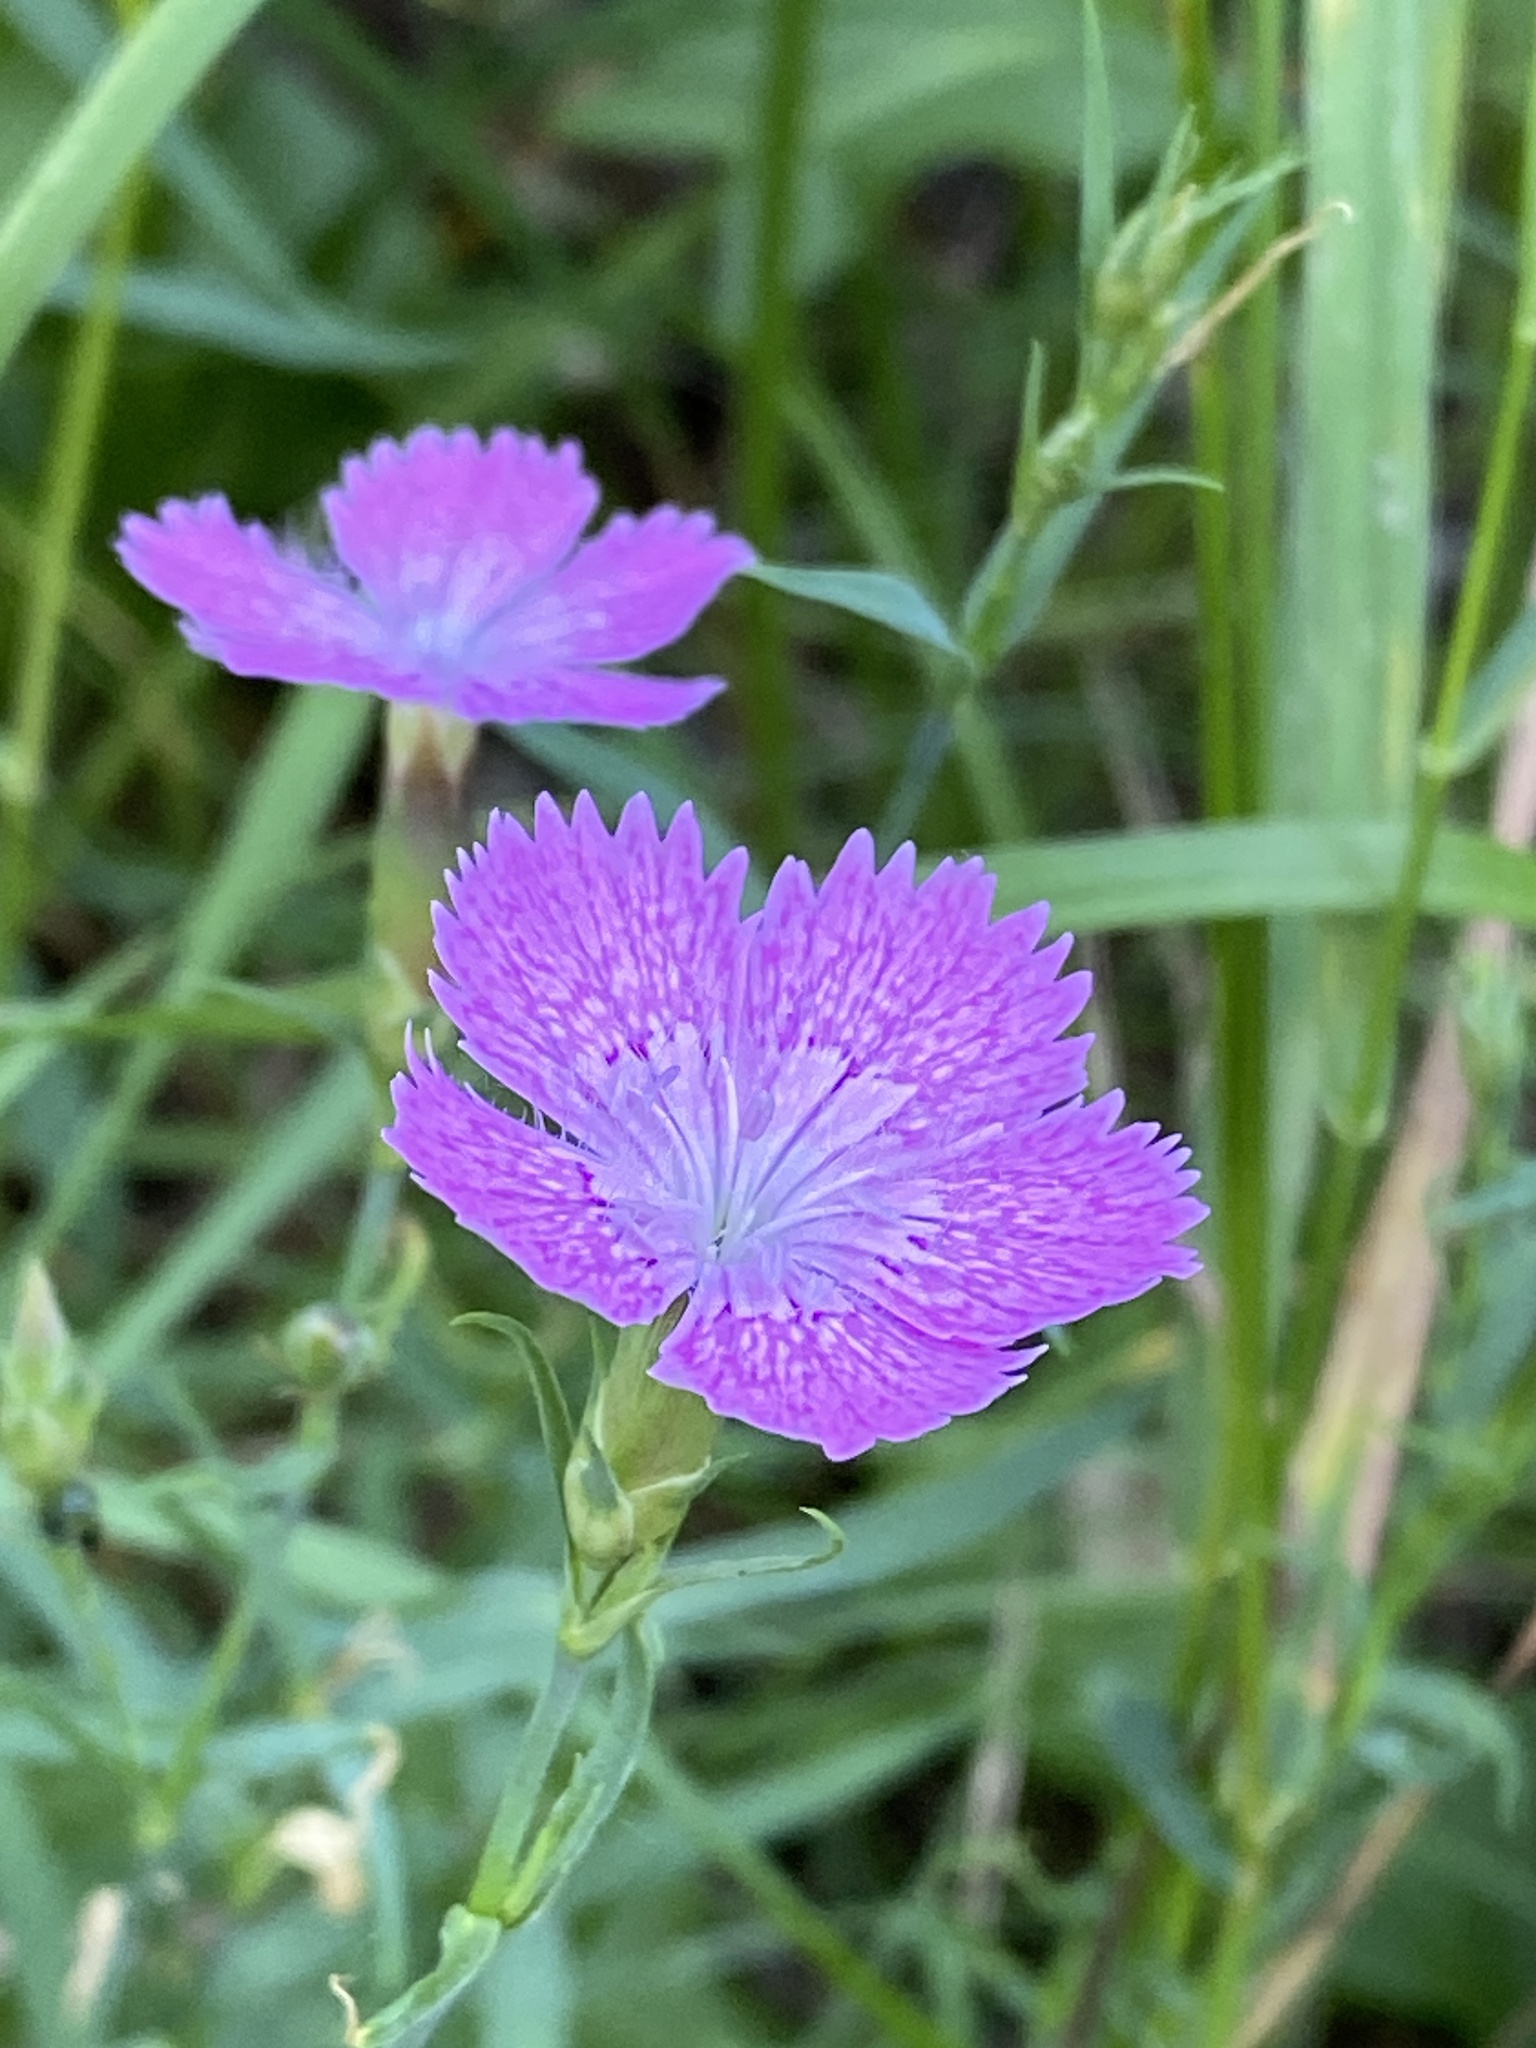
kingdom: Plantae
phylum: Tracheophyta
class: Magnoliopsida
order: Caryophyllales
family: Caryophyllaceae
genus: Dianthus
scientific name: Dianthus chinensis
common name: Rainbow pink
